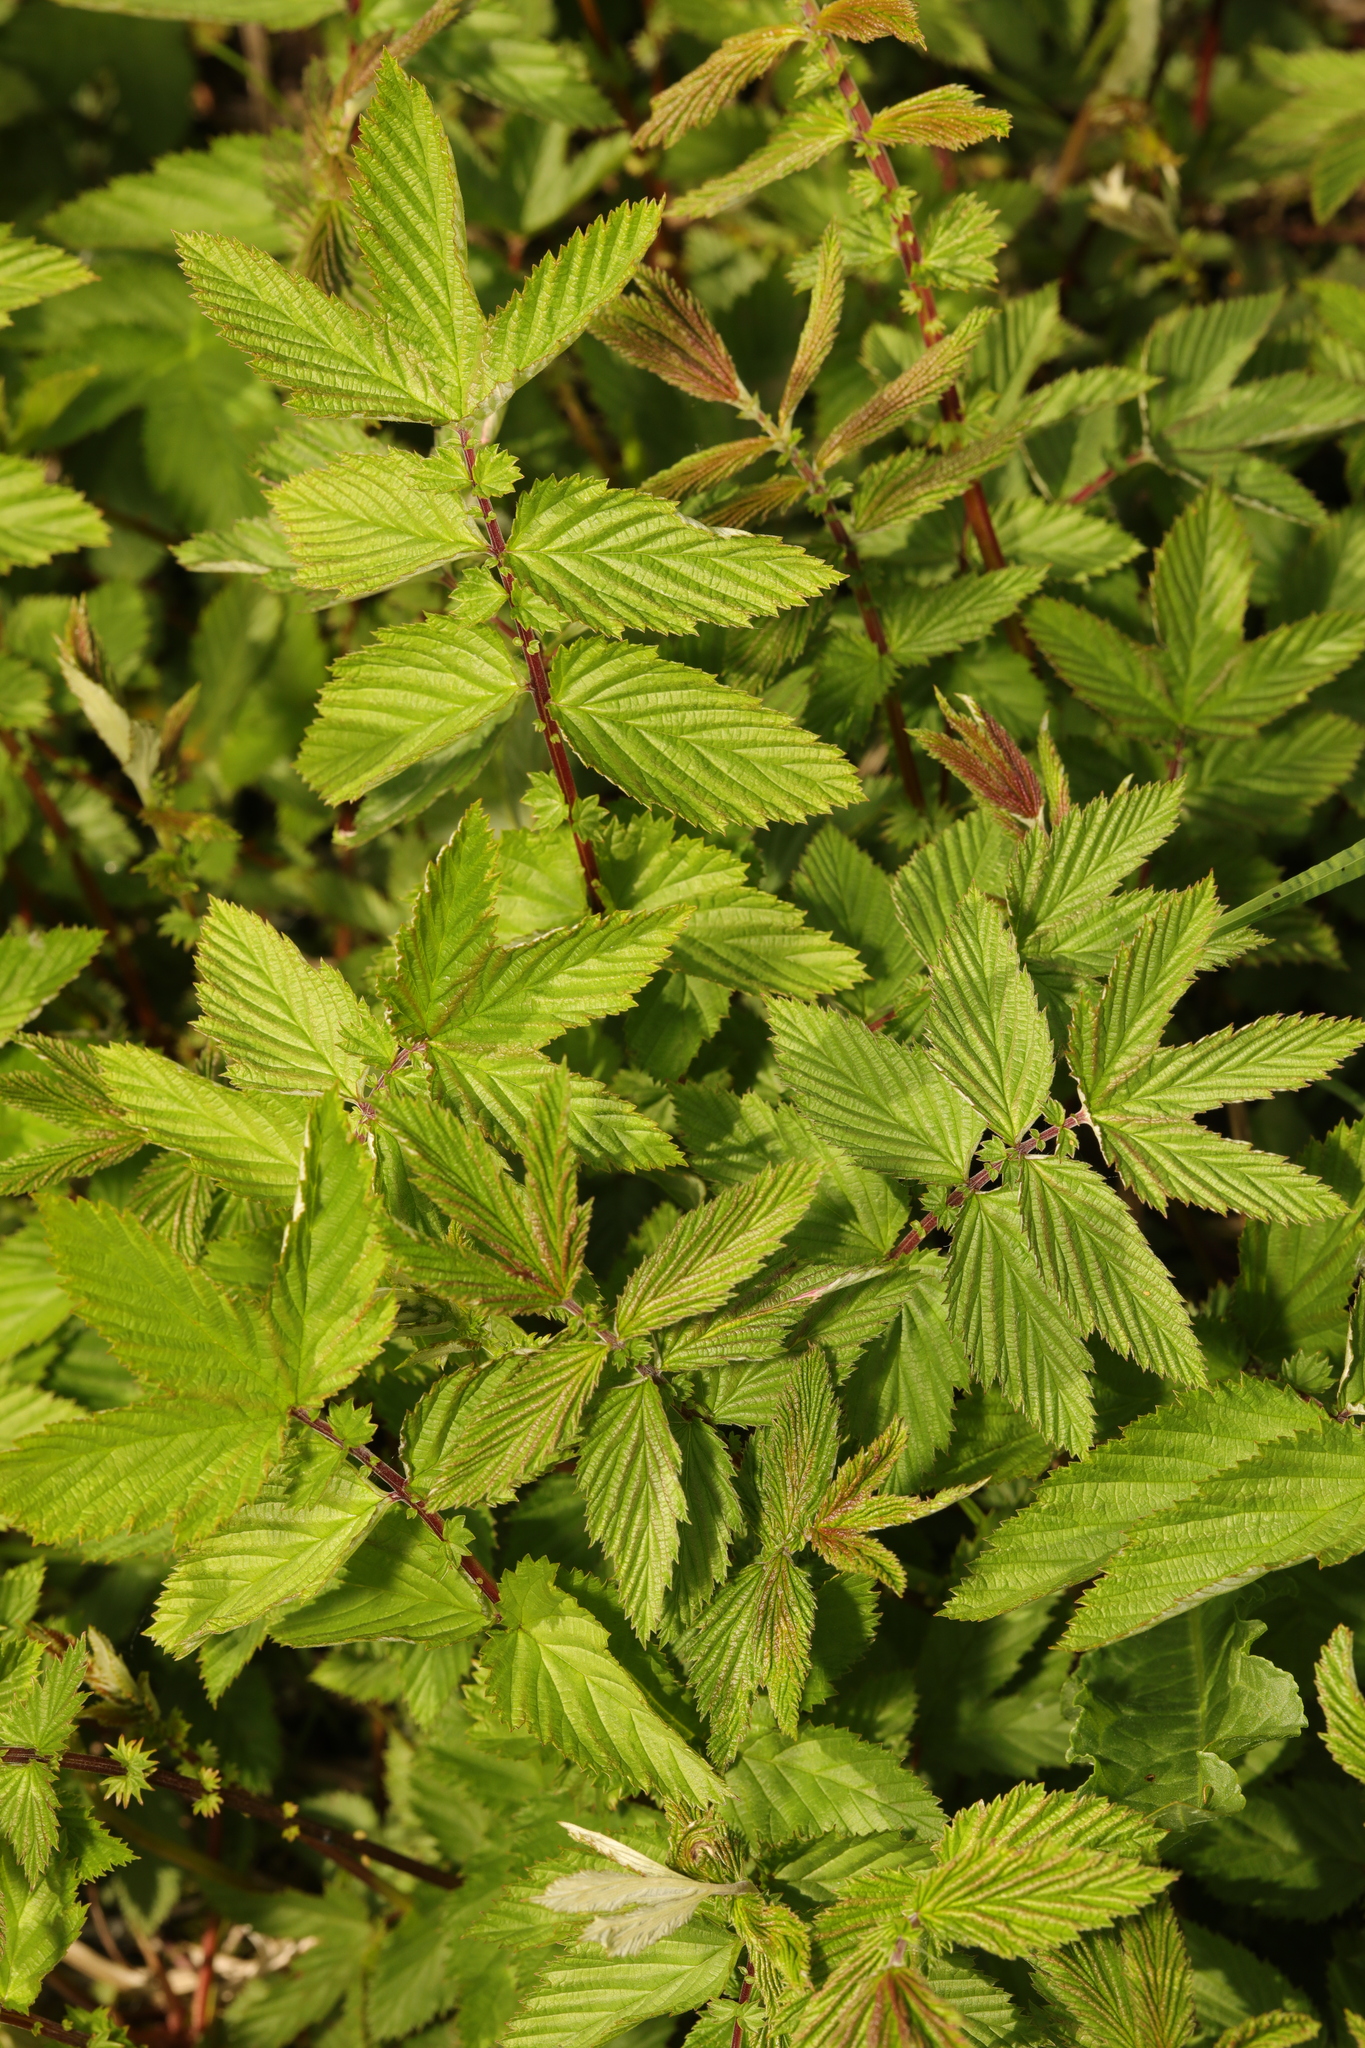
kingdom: Plantae
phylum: Tracheophyta
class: Magnoliopsida
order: Rosales
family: Rosaceae
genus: Filipendula
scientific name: Filipendula ulmaria
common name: Meadowsweet
